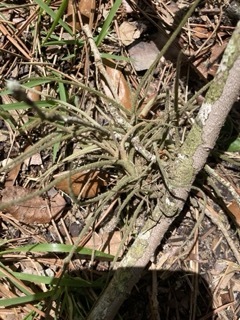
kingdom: Plantae
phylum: Tracheophyta
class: Liliopsida
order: Poales
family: Bromeliaceae
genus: Tillandsia
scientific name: Tillandsia recurvata
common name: Small ballmoss
